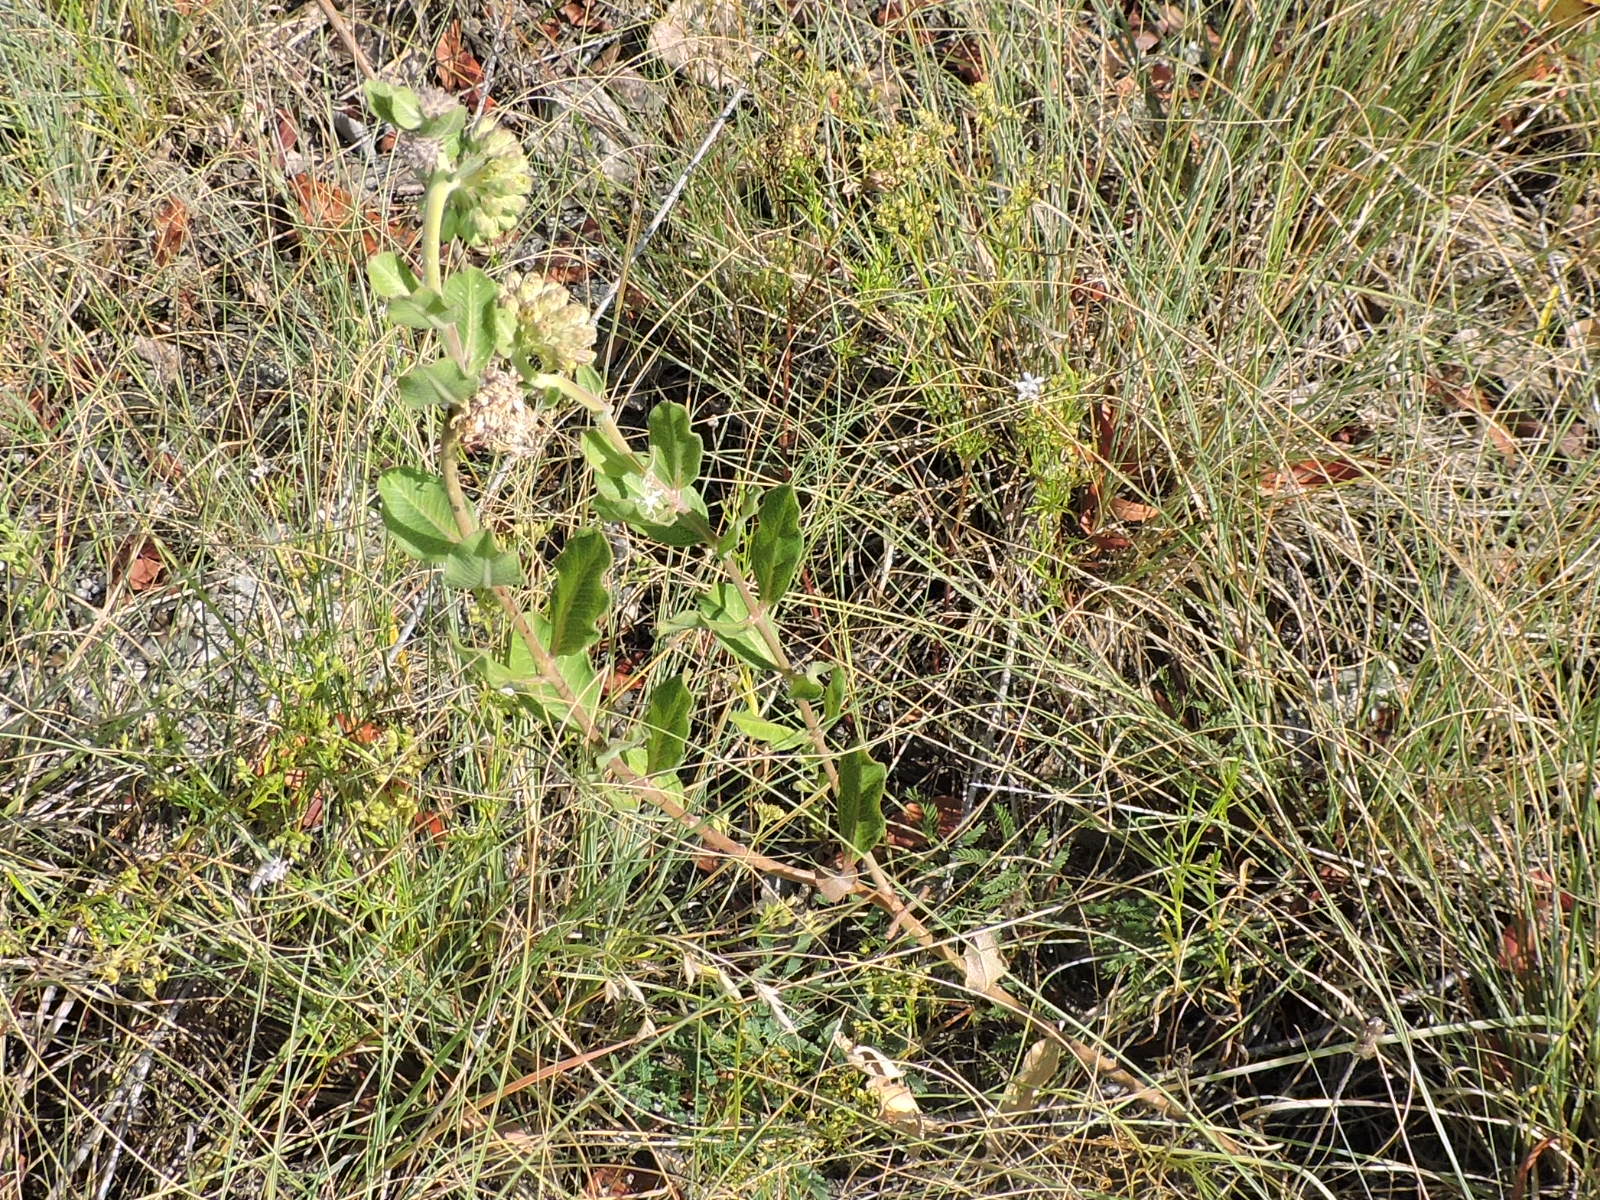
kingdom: Plantae
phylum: Tracheophyta
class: Magnoliopsida
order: Gentianales
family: Apocynaceae
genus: Asclepias
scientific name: Asclepias viridiflora
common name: Green comet milkweed
